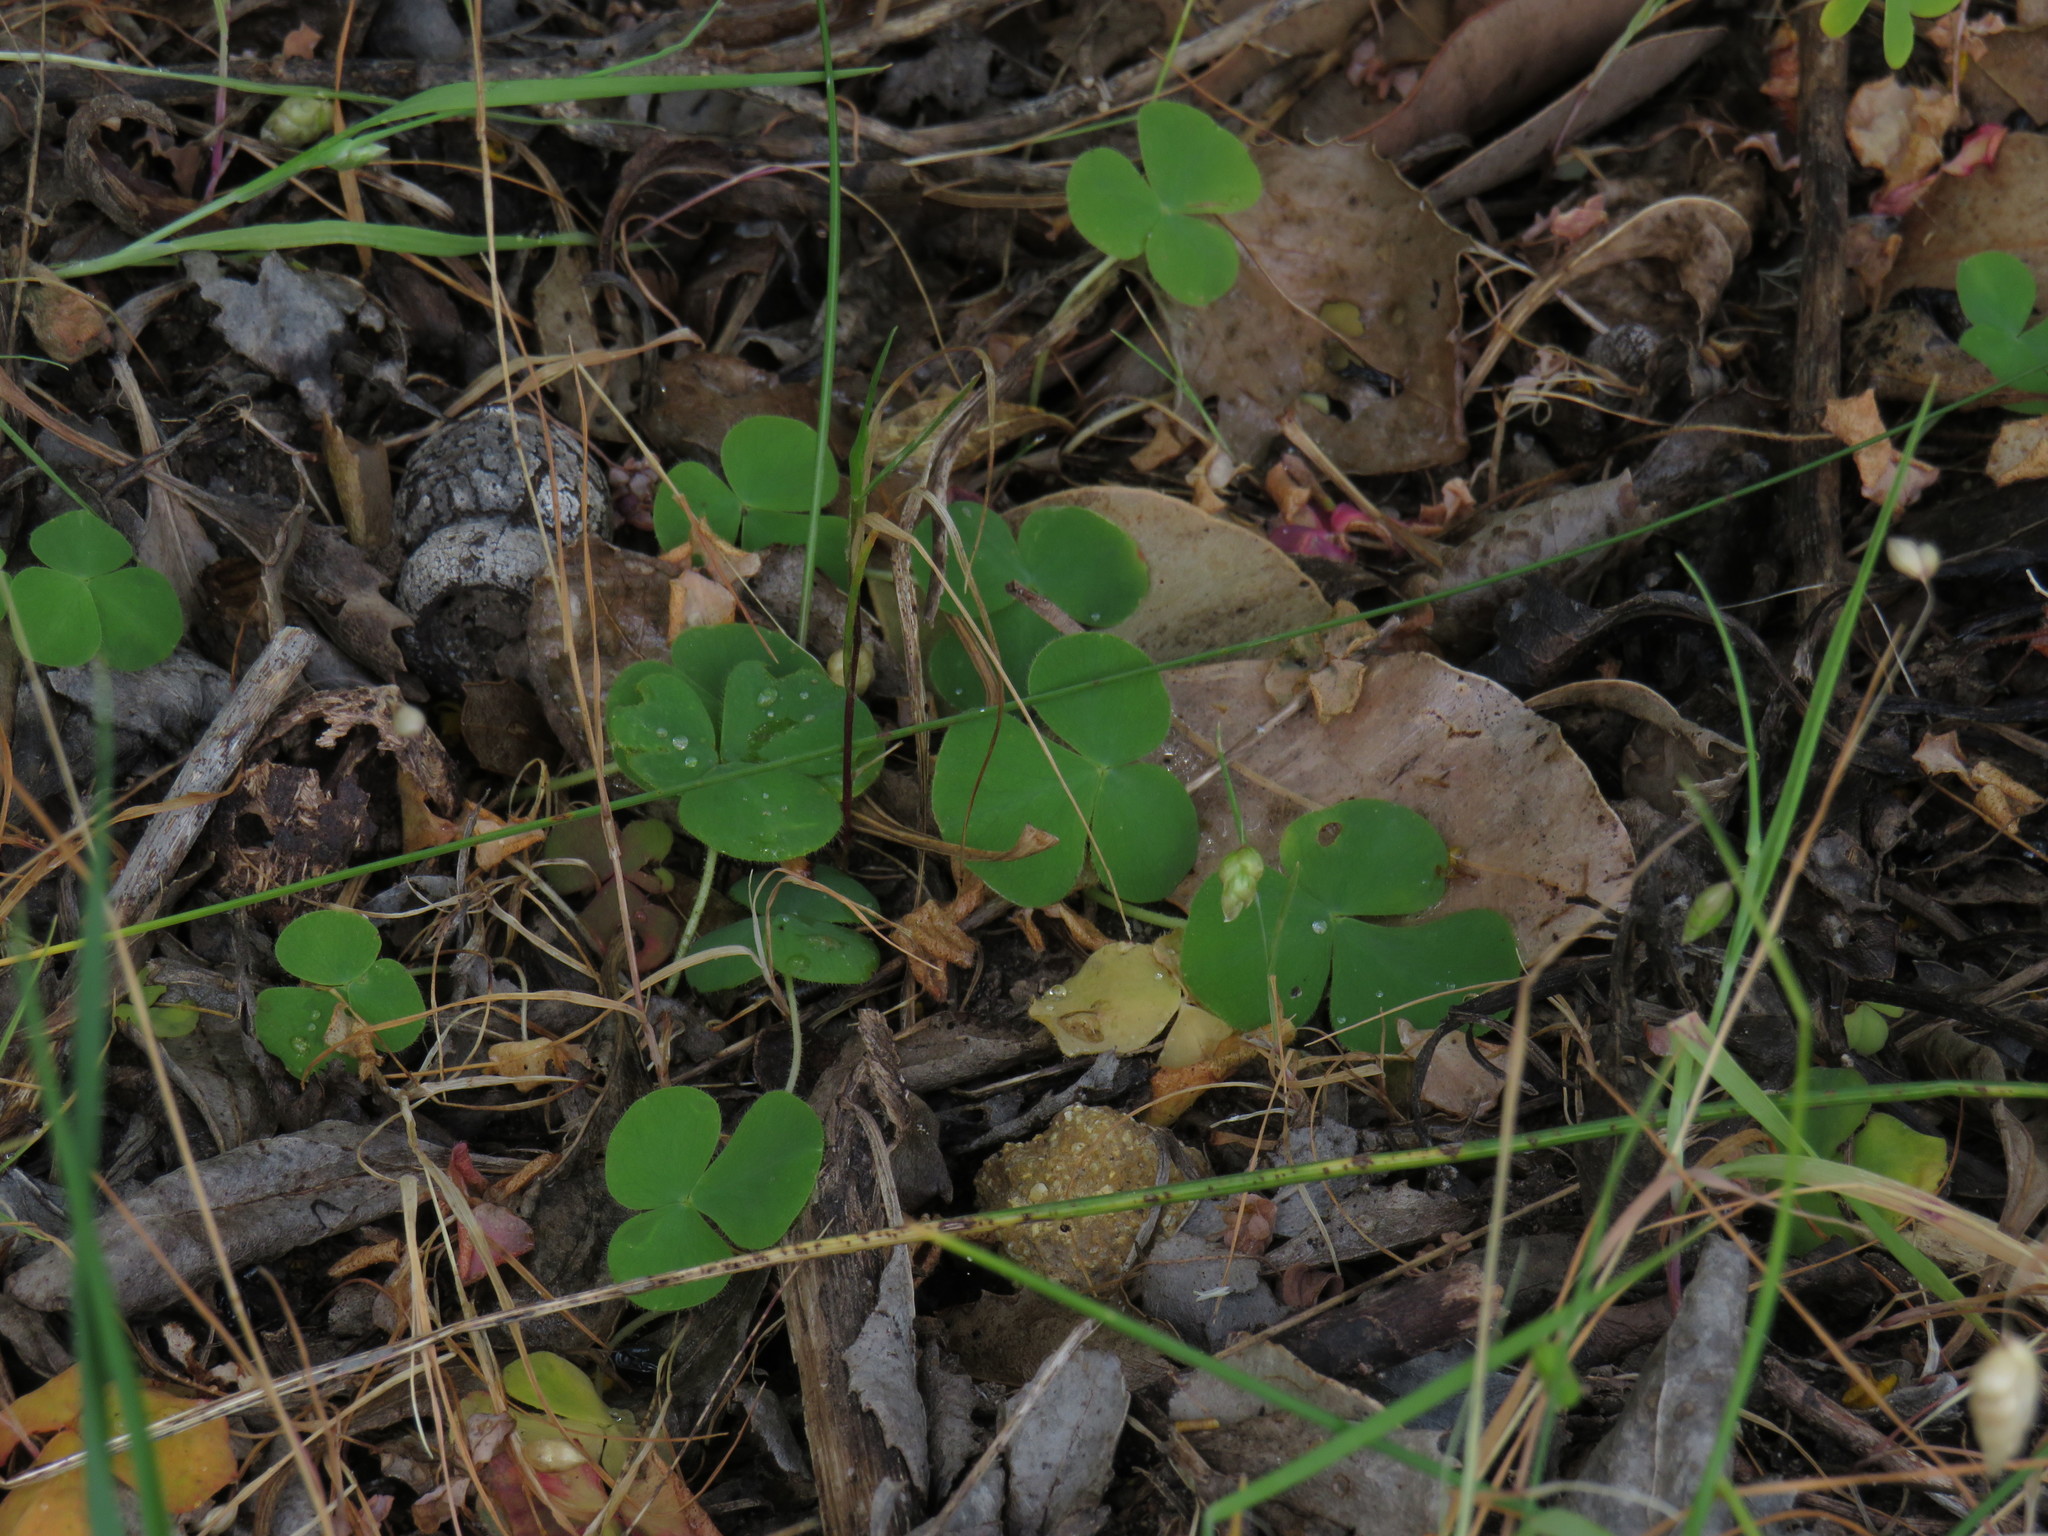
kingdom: Plantae
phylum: Tracheophyta
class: Magnoliopsida
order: Oxalidales
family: Oxalidaceae
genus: Oxalis
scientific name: Oxalis purpurea
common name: Purple woodsorrel
